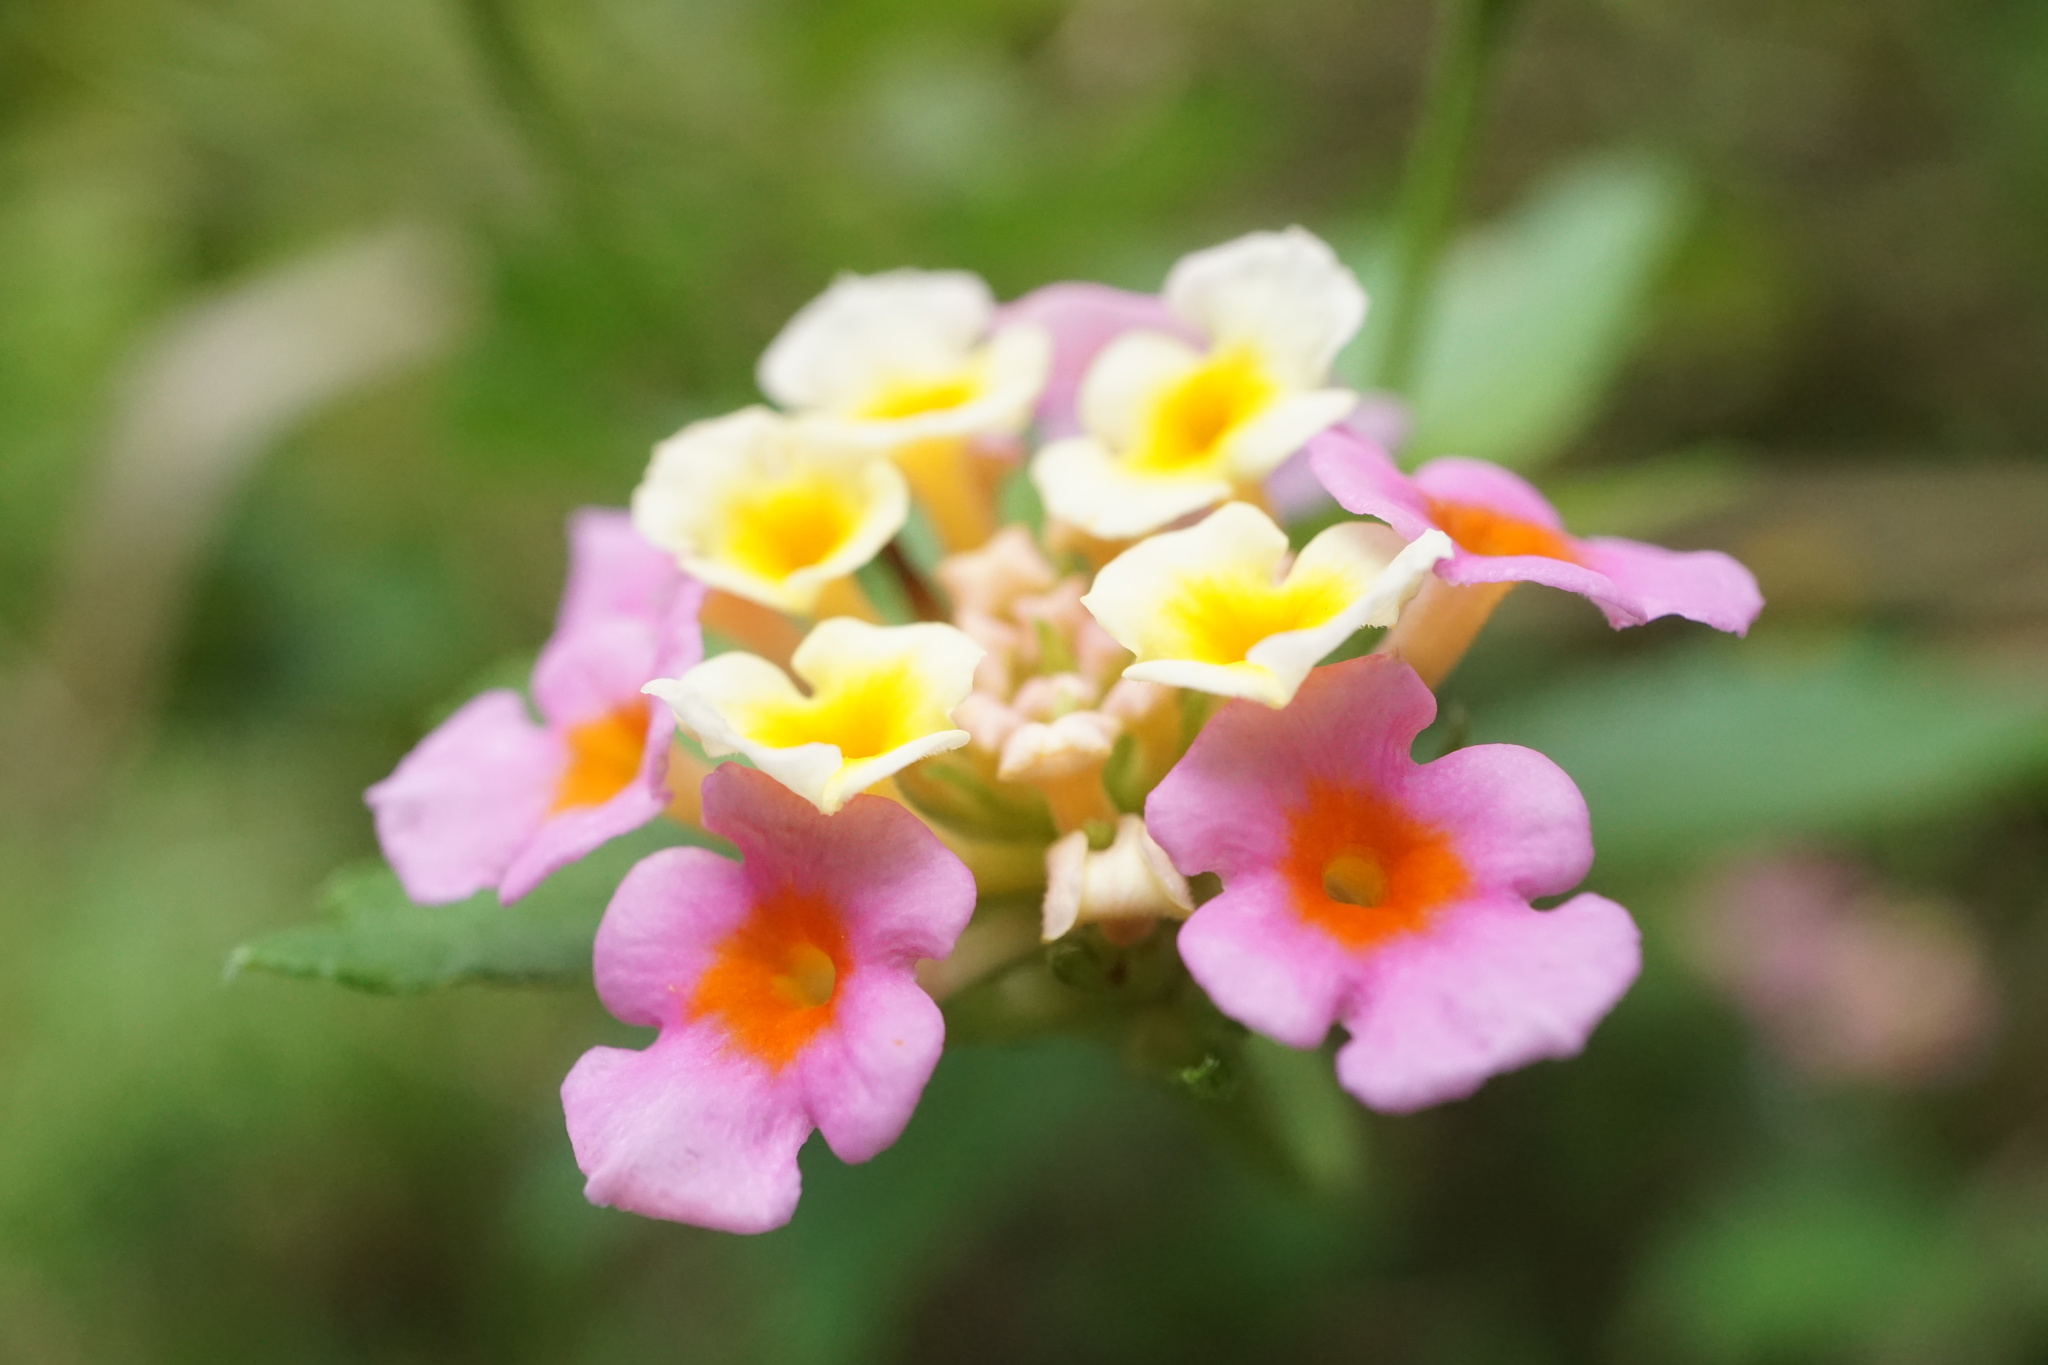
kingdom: Plantae
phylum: Tracheophyta
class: Magnoliopsida
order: Lamiales
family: Verbenaceae
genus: Lantana
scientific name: Lantana strigocamara
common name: Lantana
